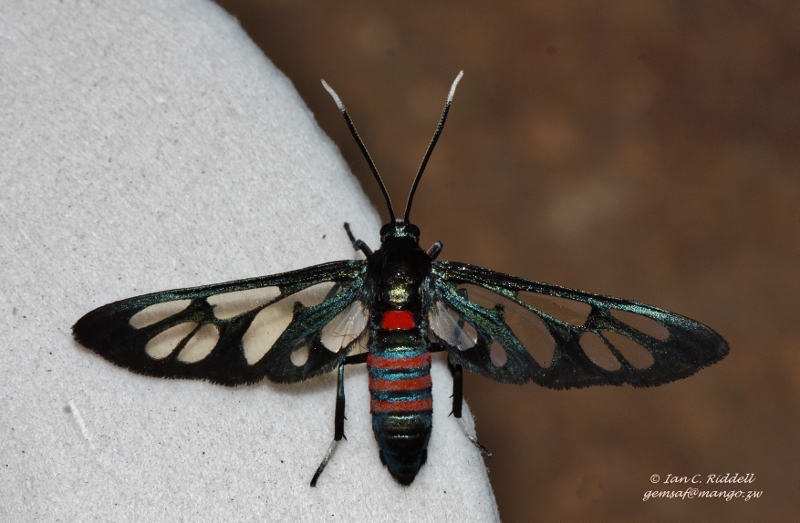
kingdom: Animalia
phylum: Arthropoda
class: Insecta
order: Lepidoptera
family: Erebidae
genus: Amata
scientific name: Amata cerbera
